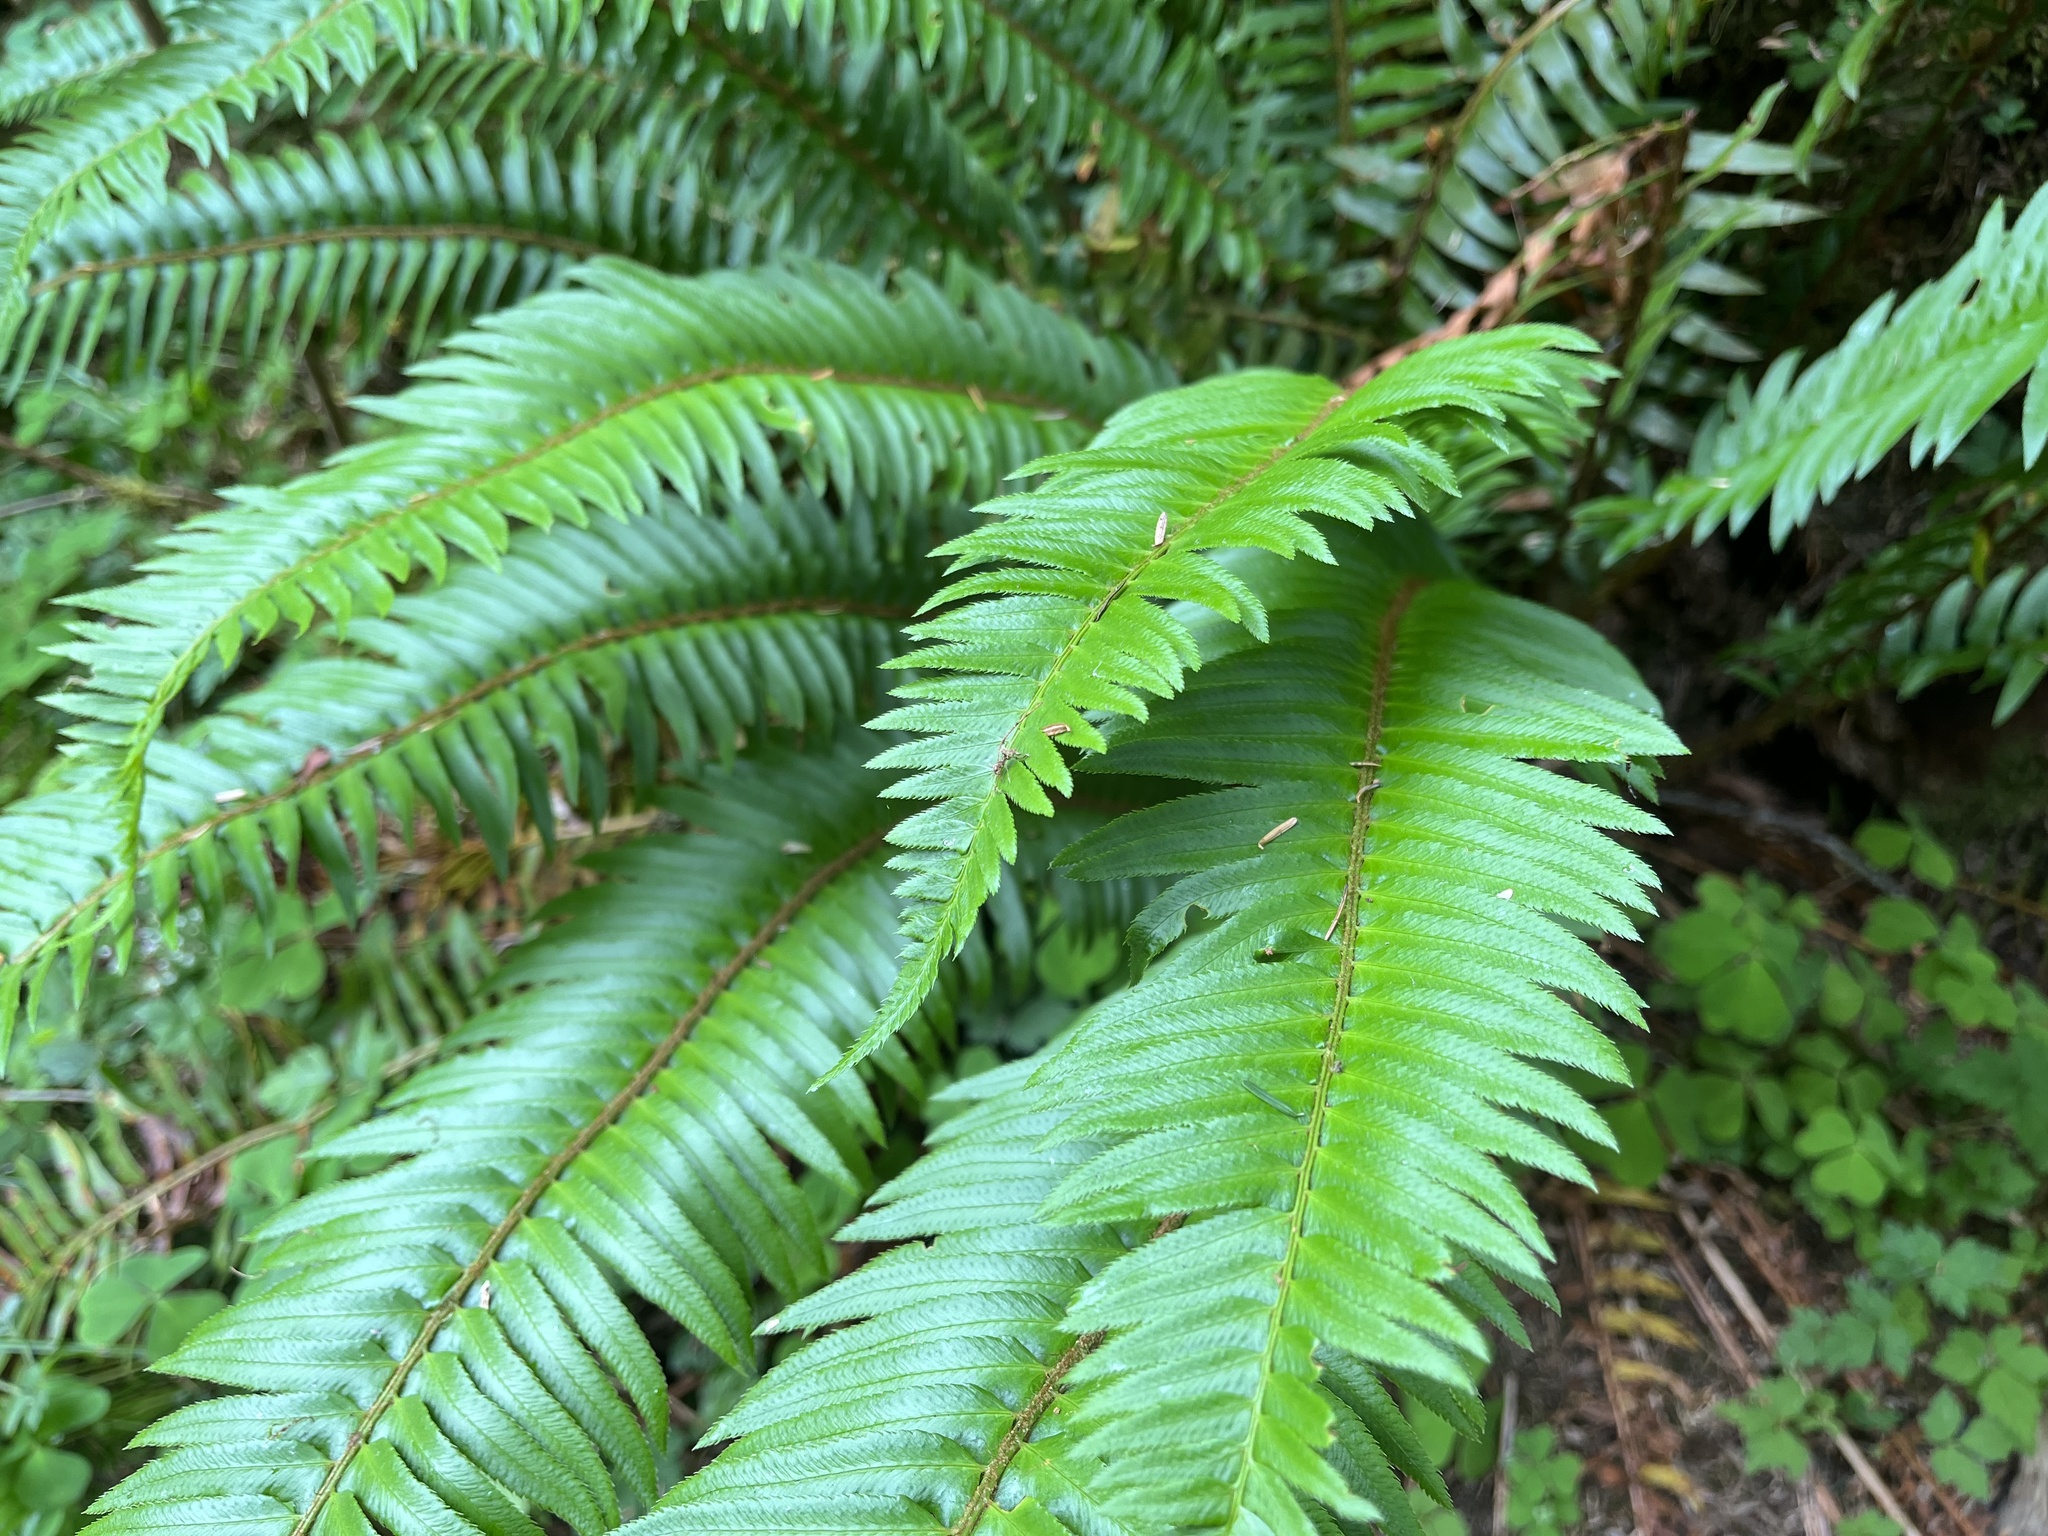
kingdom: Plantae
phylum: Tracheophyta
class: Polypodiopsida
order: Polypodiales
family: Dryopteridaceae
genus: Polystichum
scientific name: Polystichum munitum
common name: Western sword-fern
